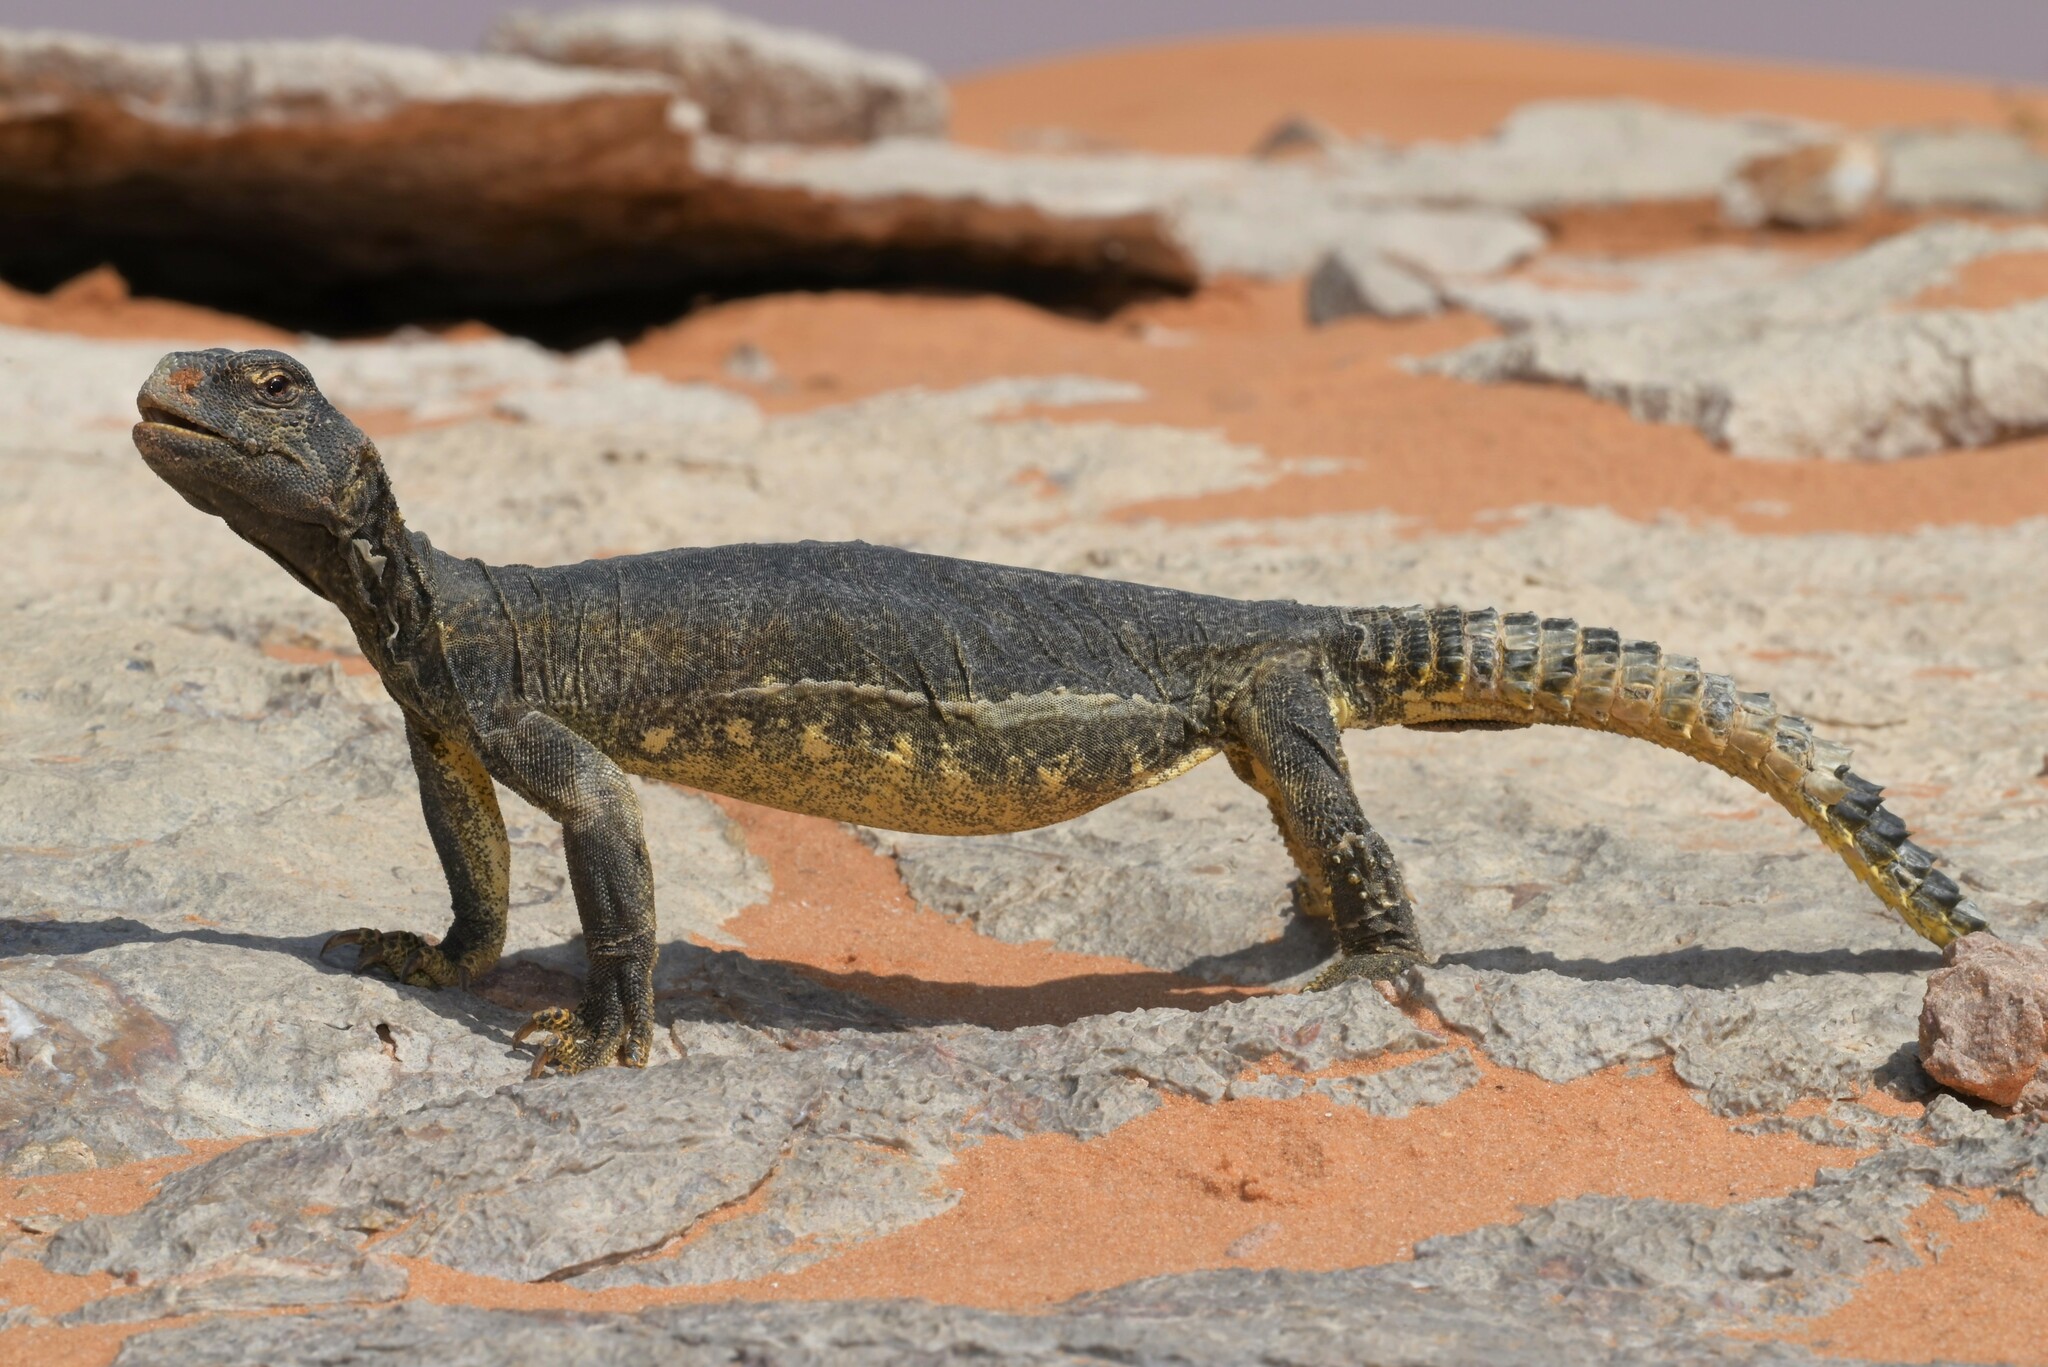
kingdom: Animalia
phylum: Chordata
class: Squamata
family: Agamidae
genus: Uromastyx
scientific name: Uromastyx aegyptia
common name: Egyptian mastigure
